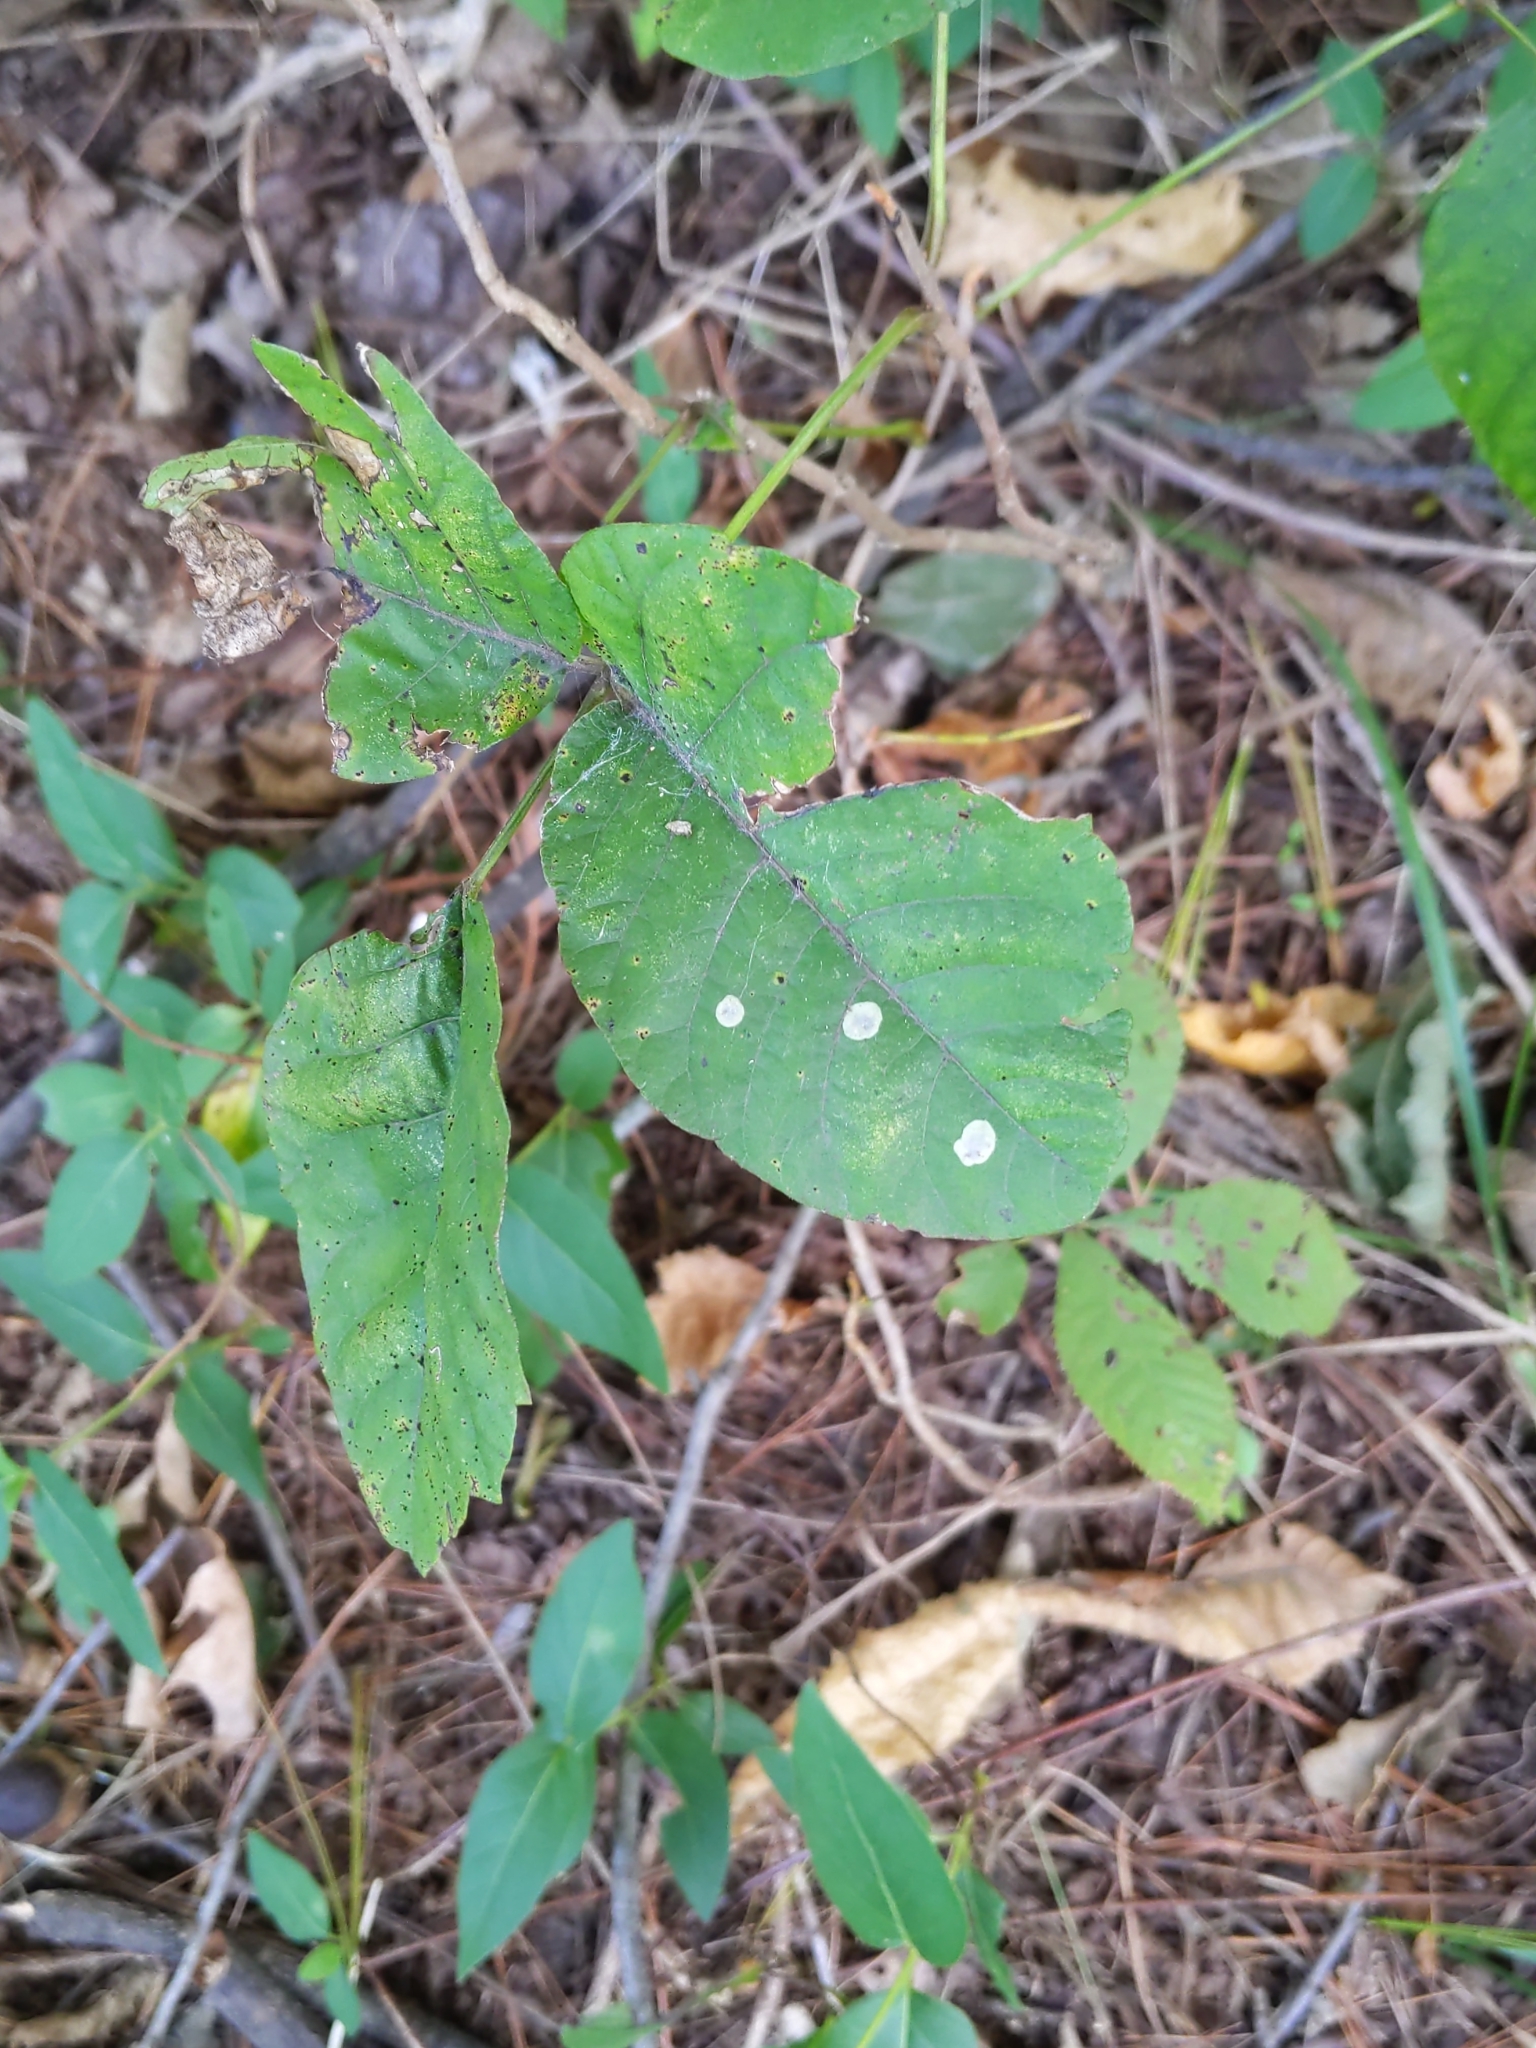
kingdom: Animalia
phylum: Arthropoda
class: Insecta
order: Lepidoptera
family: Gracillariidae
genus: Cameraria
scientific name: Cameraria guttifinitella
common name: Poison ivy leaf-miner moth
